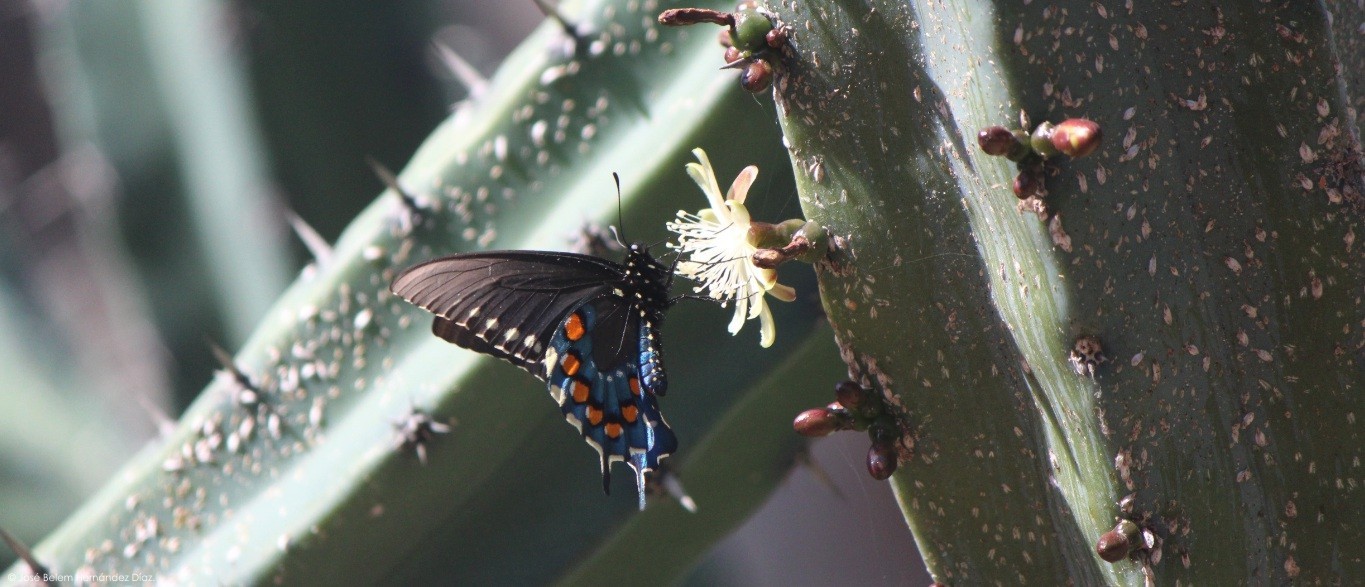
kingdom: Plantae
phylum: Tracheophyta
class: Magnoliopsida
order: Caryophyllales
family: Cactaceae
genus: Myrtillocactus
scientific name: Myrtillocactus geometrizans
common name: Bilberry cactus
